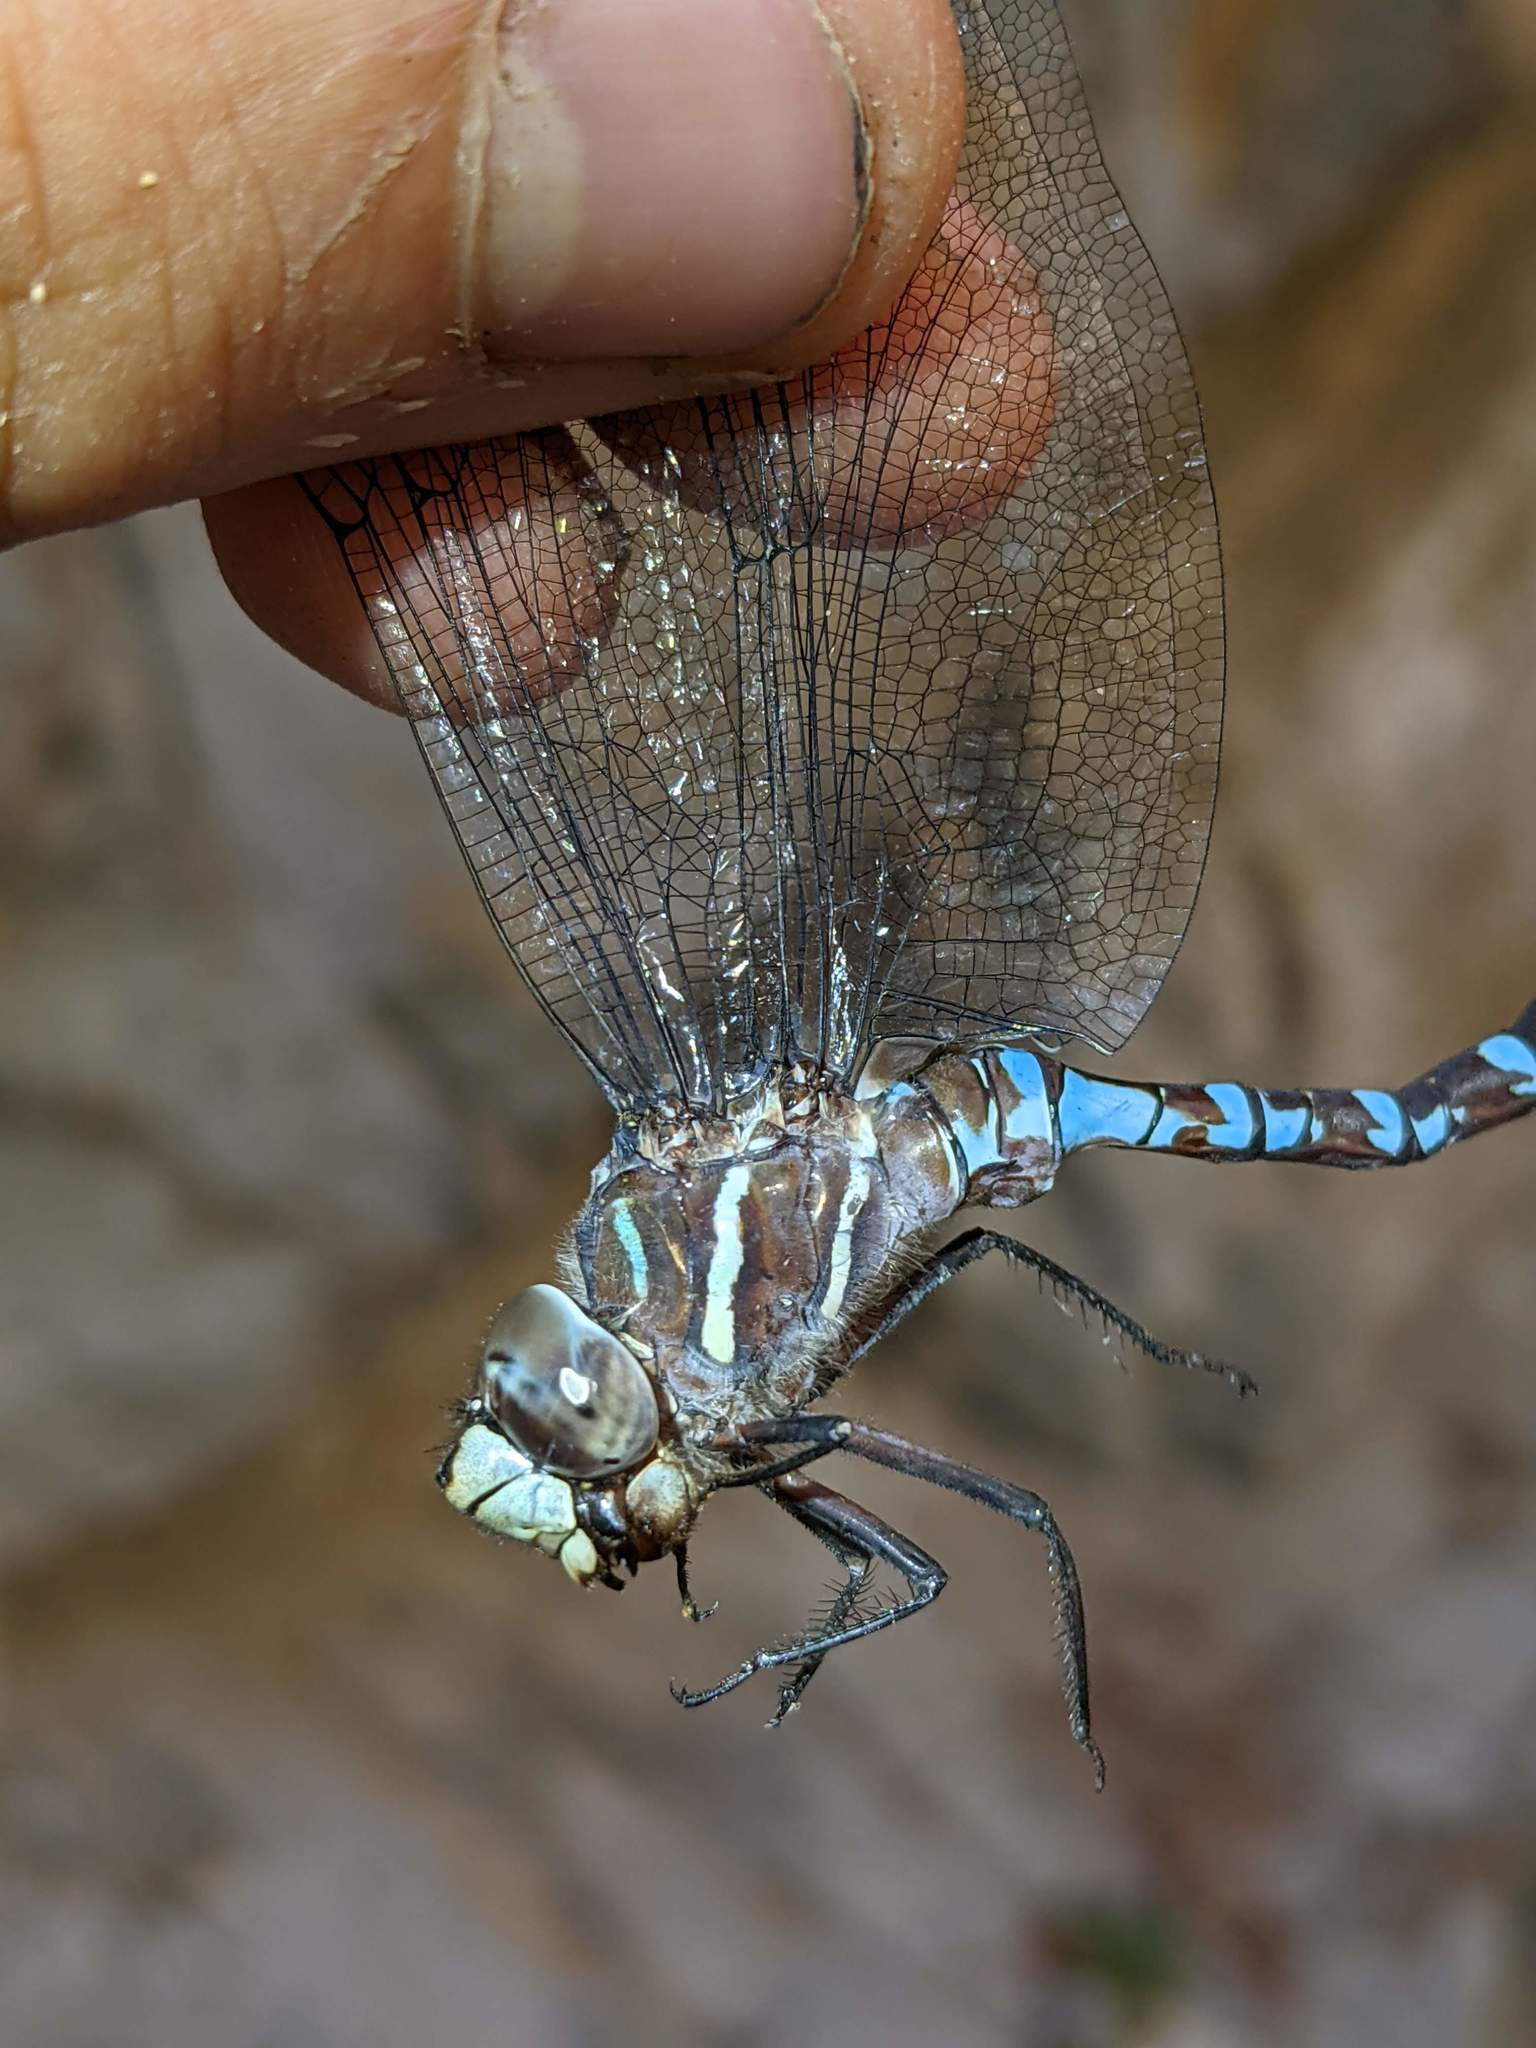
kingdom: Animalia
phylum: Arthropoda
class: Insecta
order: Odonata
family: Aeshnidae
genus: Aeshna
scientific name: Aeshna walkeri
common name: Walker's darner
